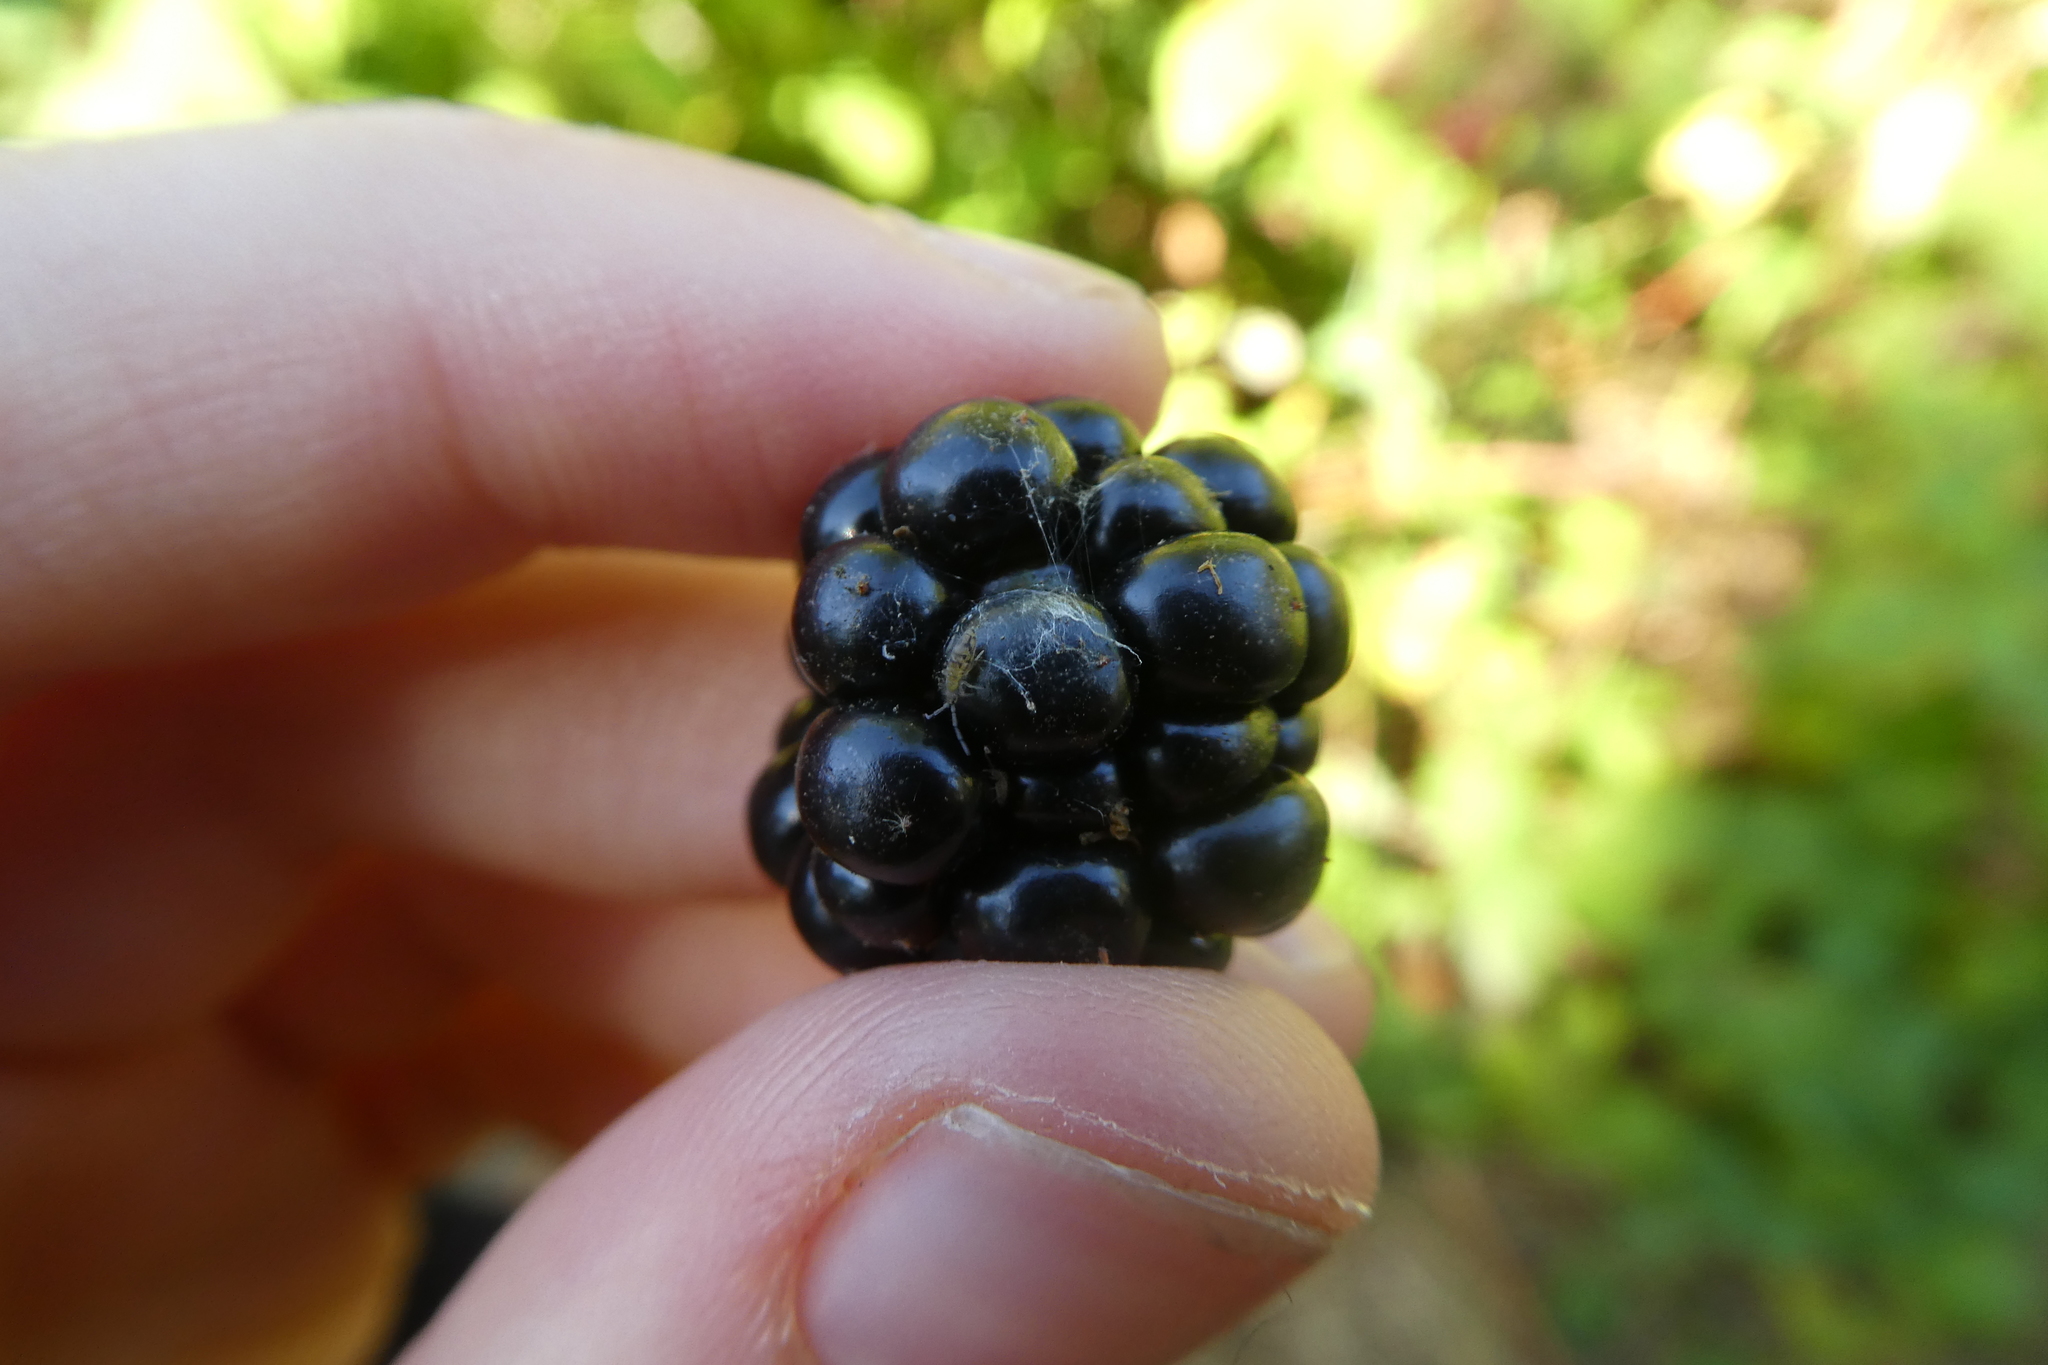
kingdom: Animalia
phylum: Arthropoda
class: Collembola
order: Entomobryomorpha
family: Entomobryidae
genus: Entomobrya
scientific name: Entomobrya nivalis
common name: Cosmopolitan springtail
